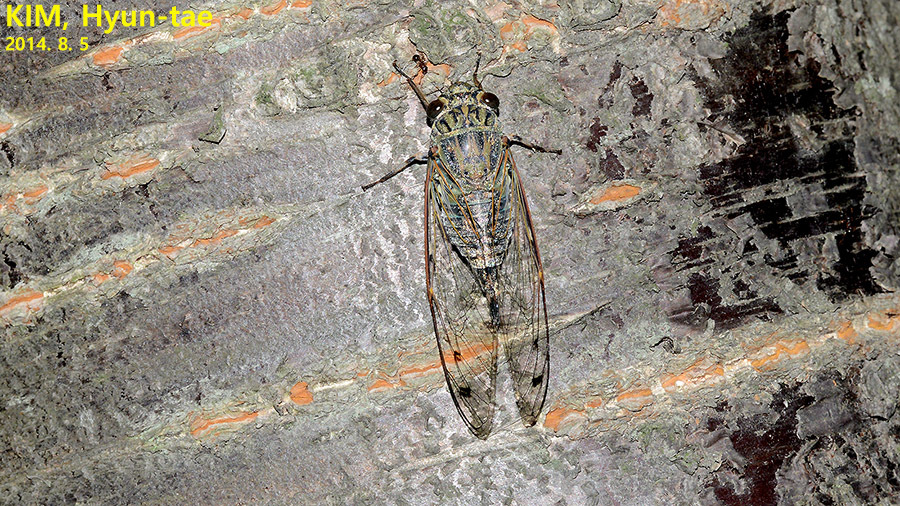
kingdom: Animalia
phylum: Arthropoda
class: Insecta
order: Hemiptera
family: Cicadidae
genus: Meimuna
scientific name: Meimuna opalifera
